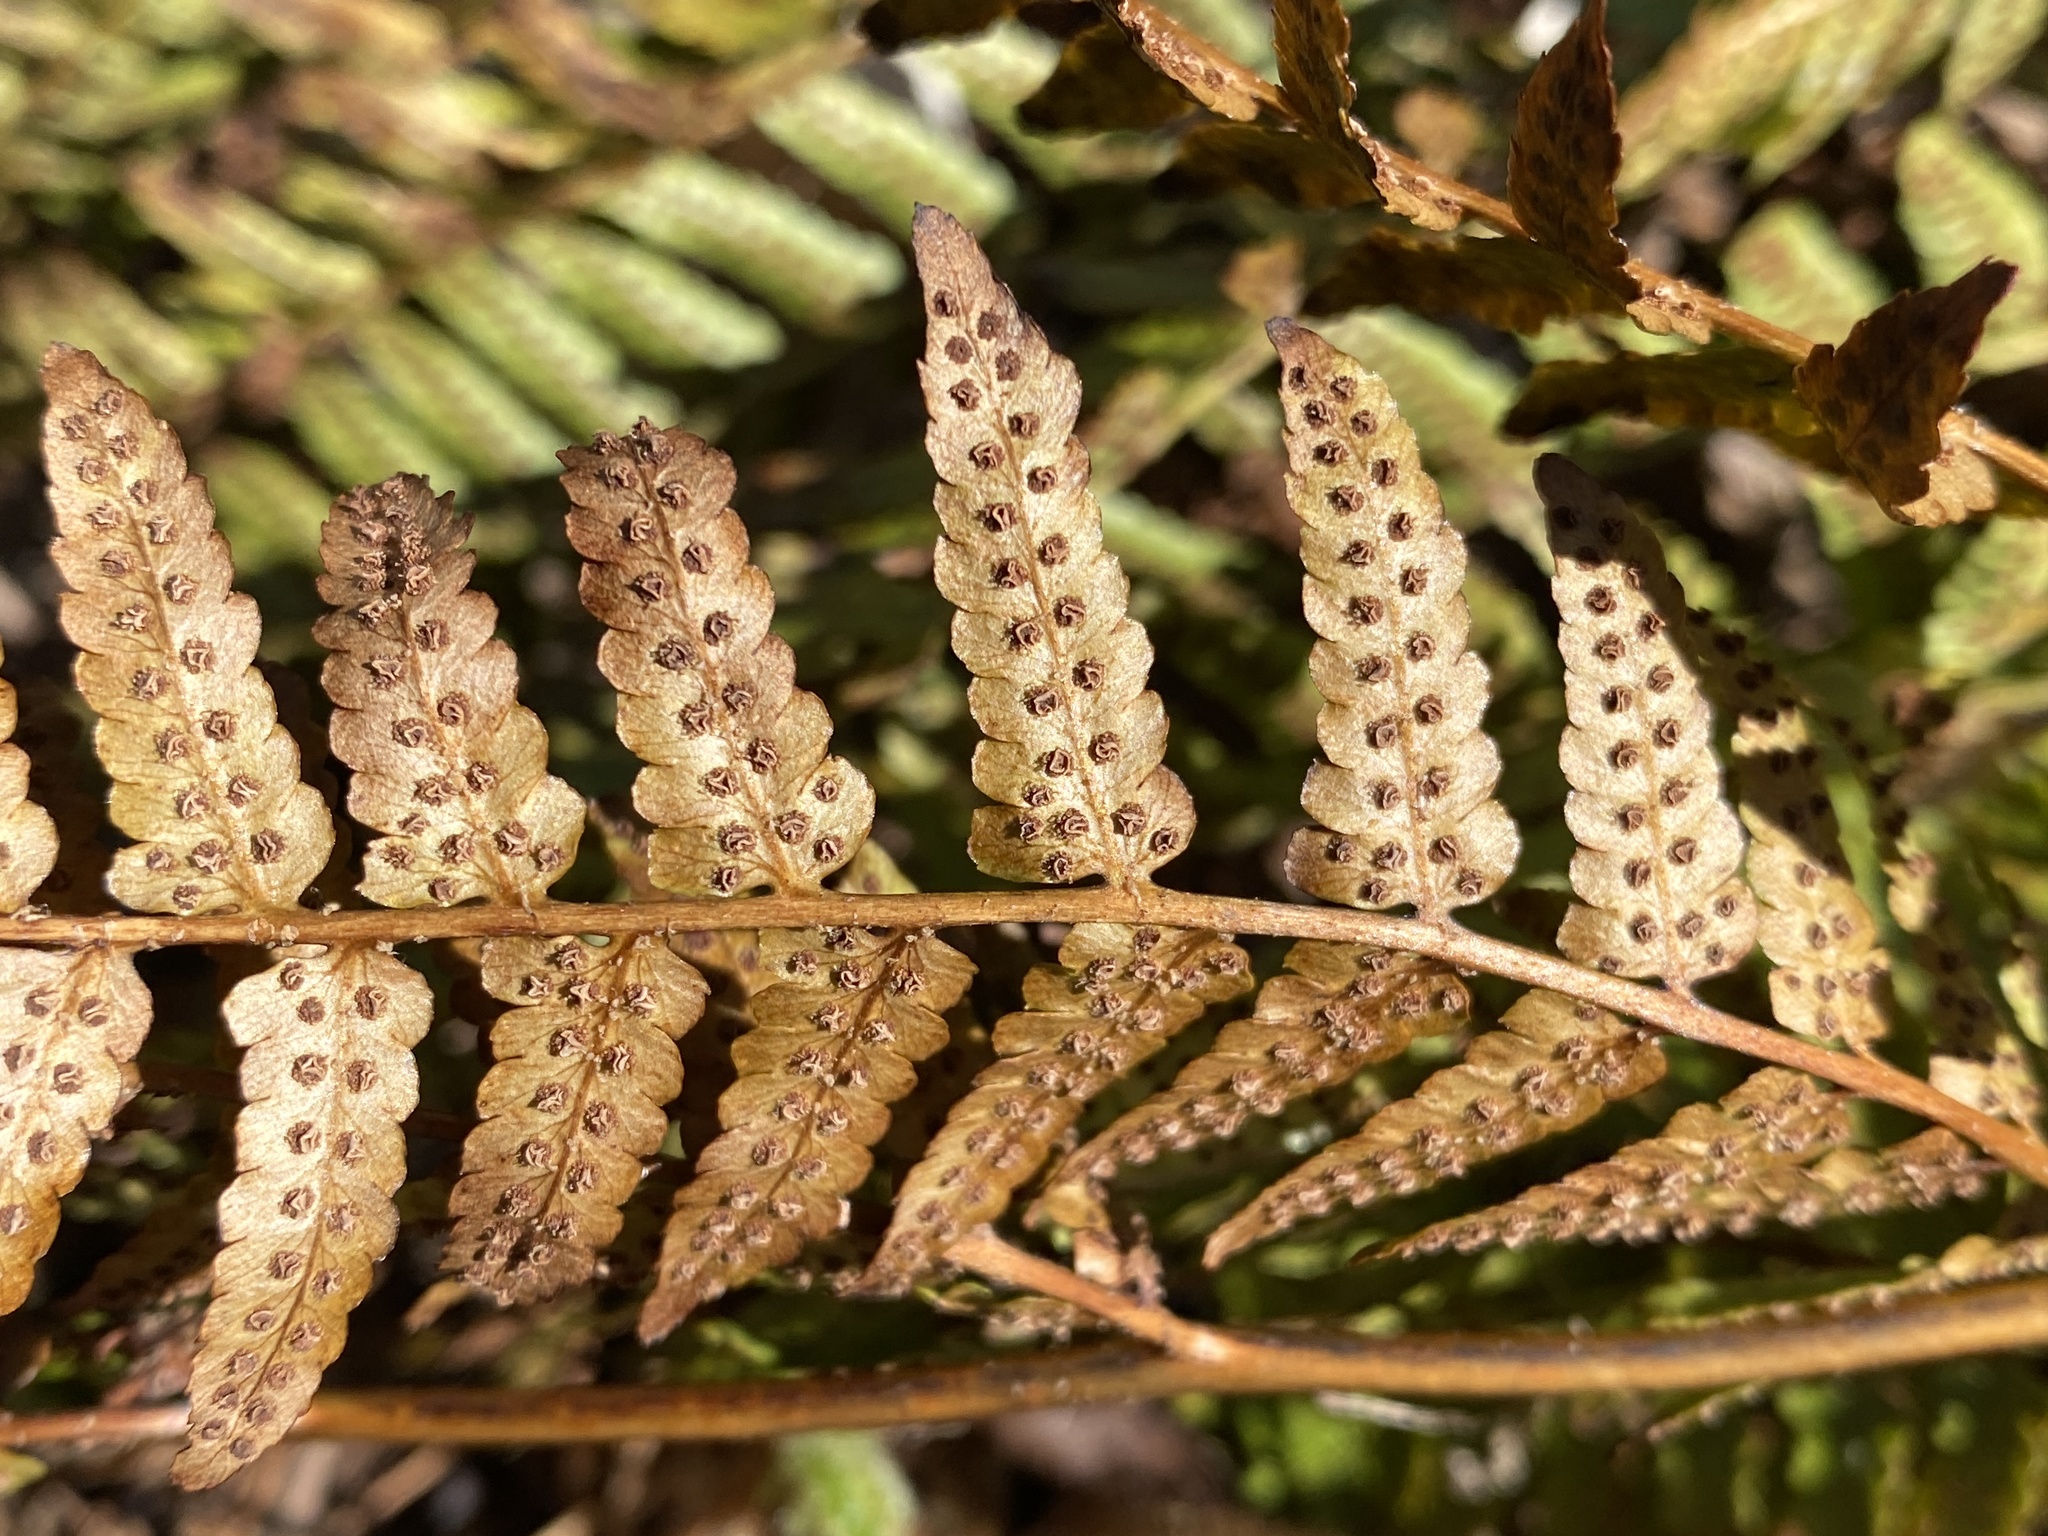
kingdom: Plantae
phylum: Tracheophyta
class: Polypodiopsida
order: Polypodiales
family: Dryopteridaceae
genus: Dryopteris
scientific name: Dryopteris erythrosora
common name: Autumn fern
